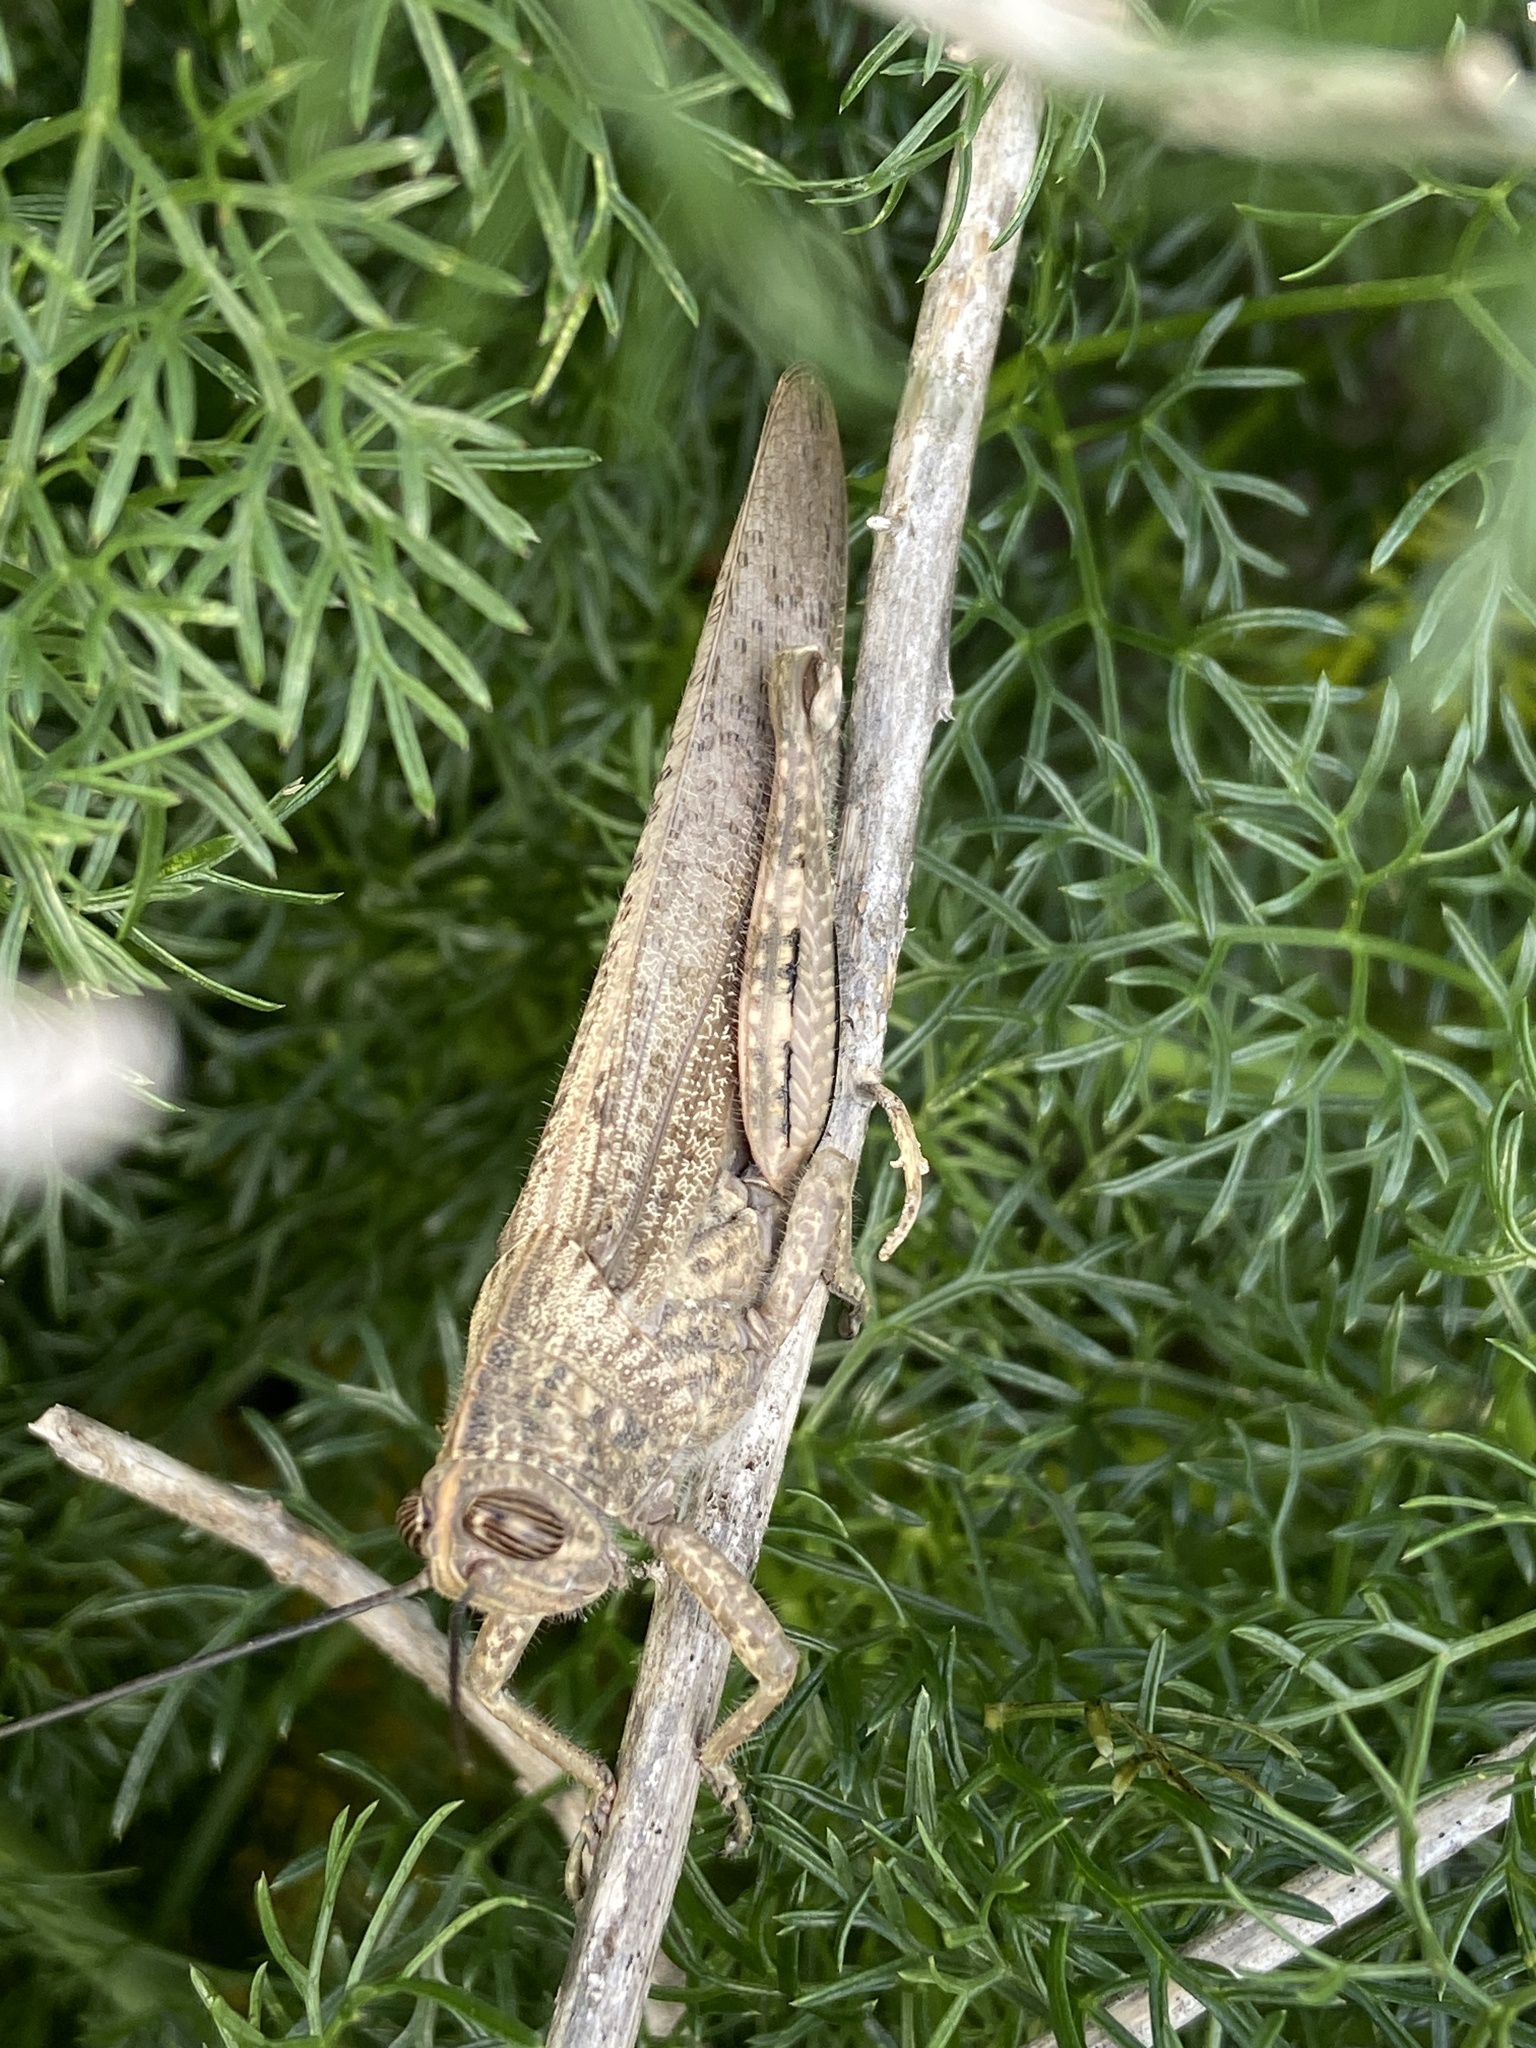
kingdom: Animalia
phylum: Arthropoda
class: Insecta
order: Orthoptera
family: Acrididae
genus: Anacridium
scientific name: Anacridium aegyptium
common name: Egyptian grasshopper
